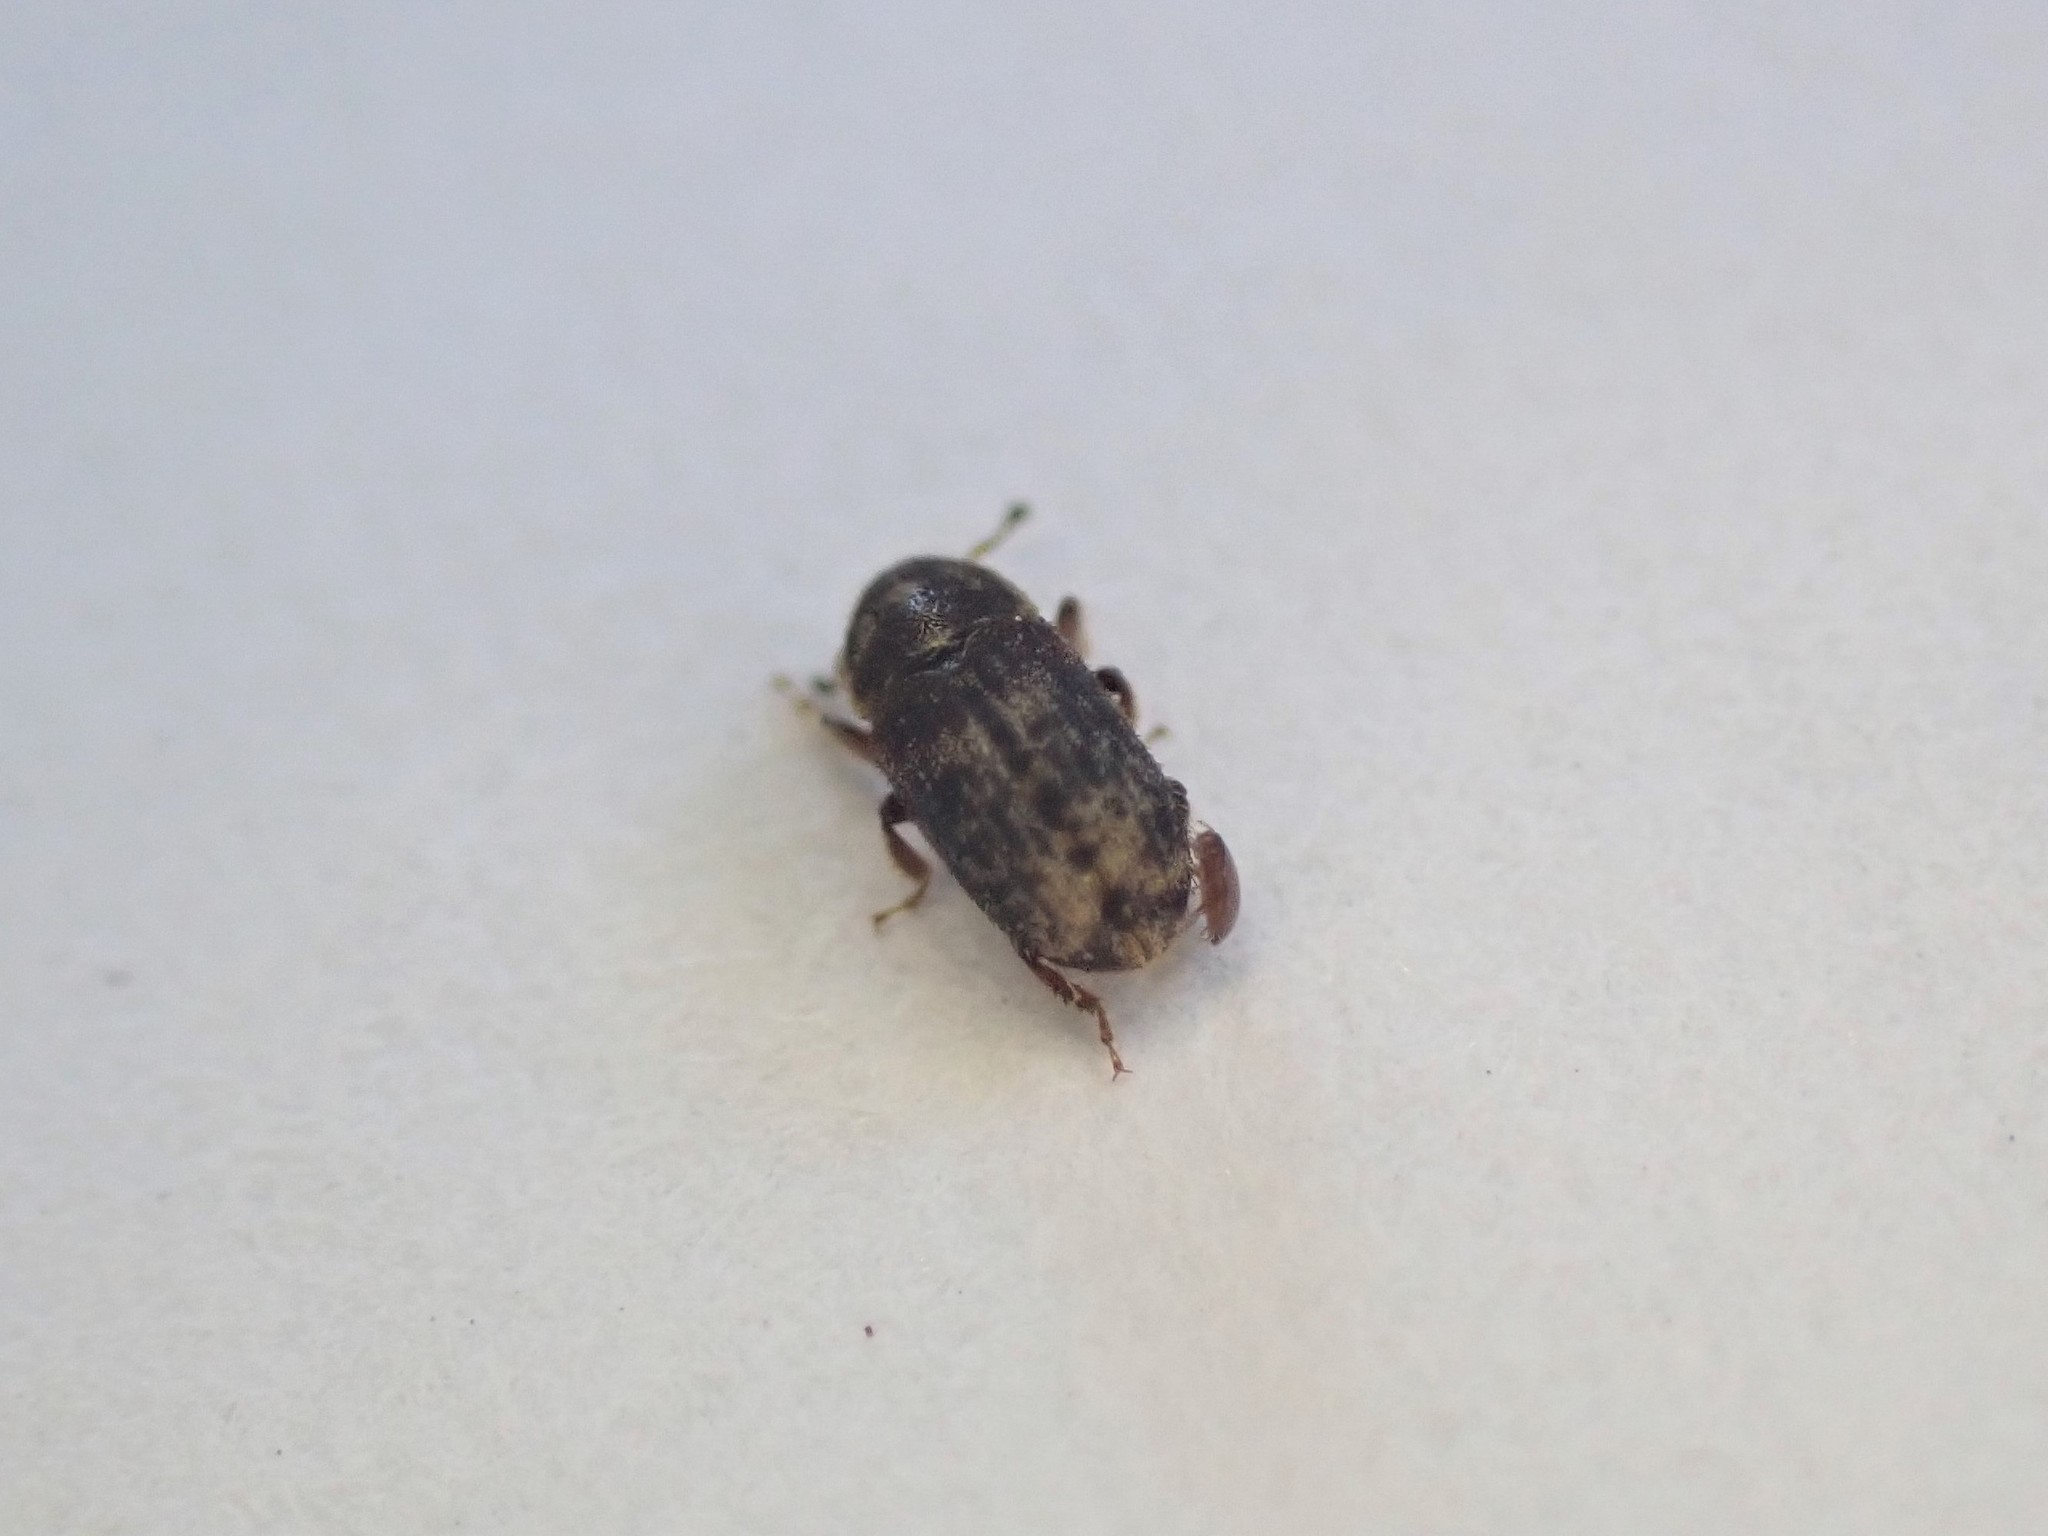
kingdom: Animalia
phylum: Arthropoda
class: Insecta
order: Coleoptera
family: Curculionidae
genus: Chaetoptelius
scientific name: Chaetoptelius mundulus
